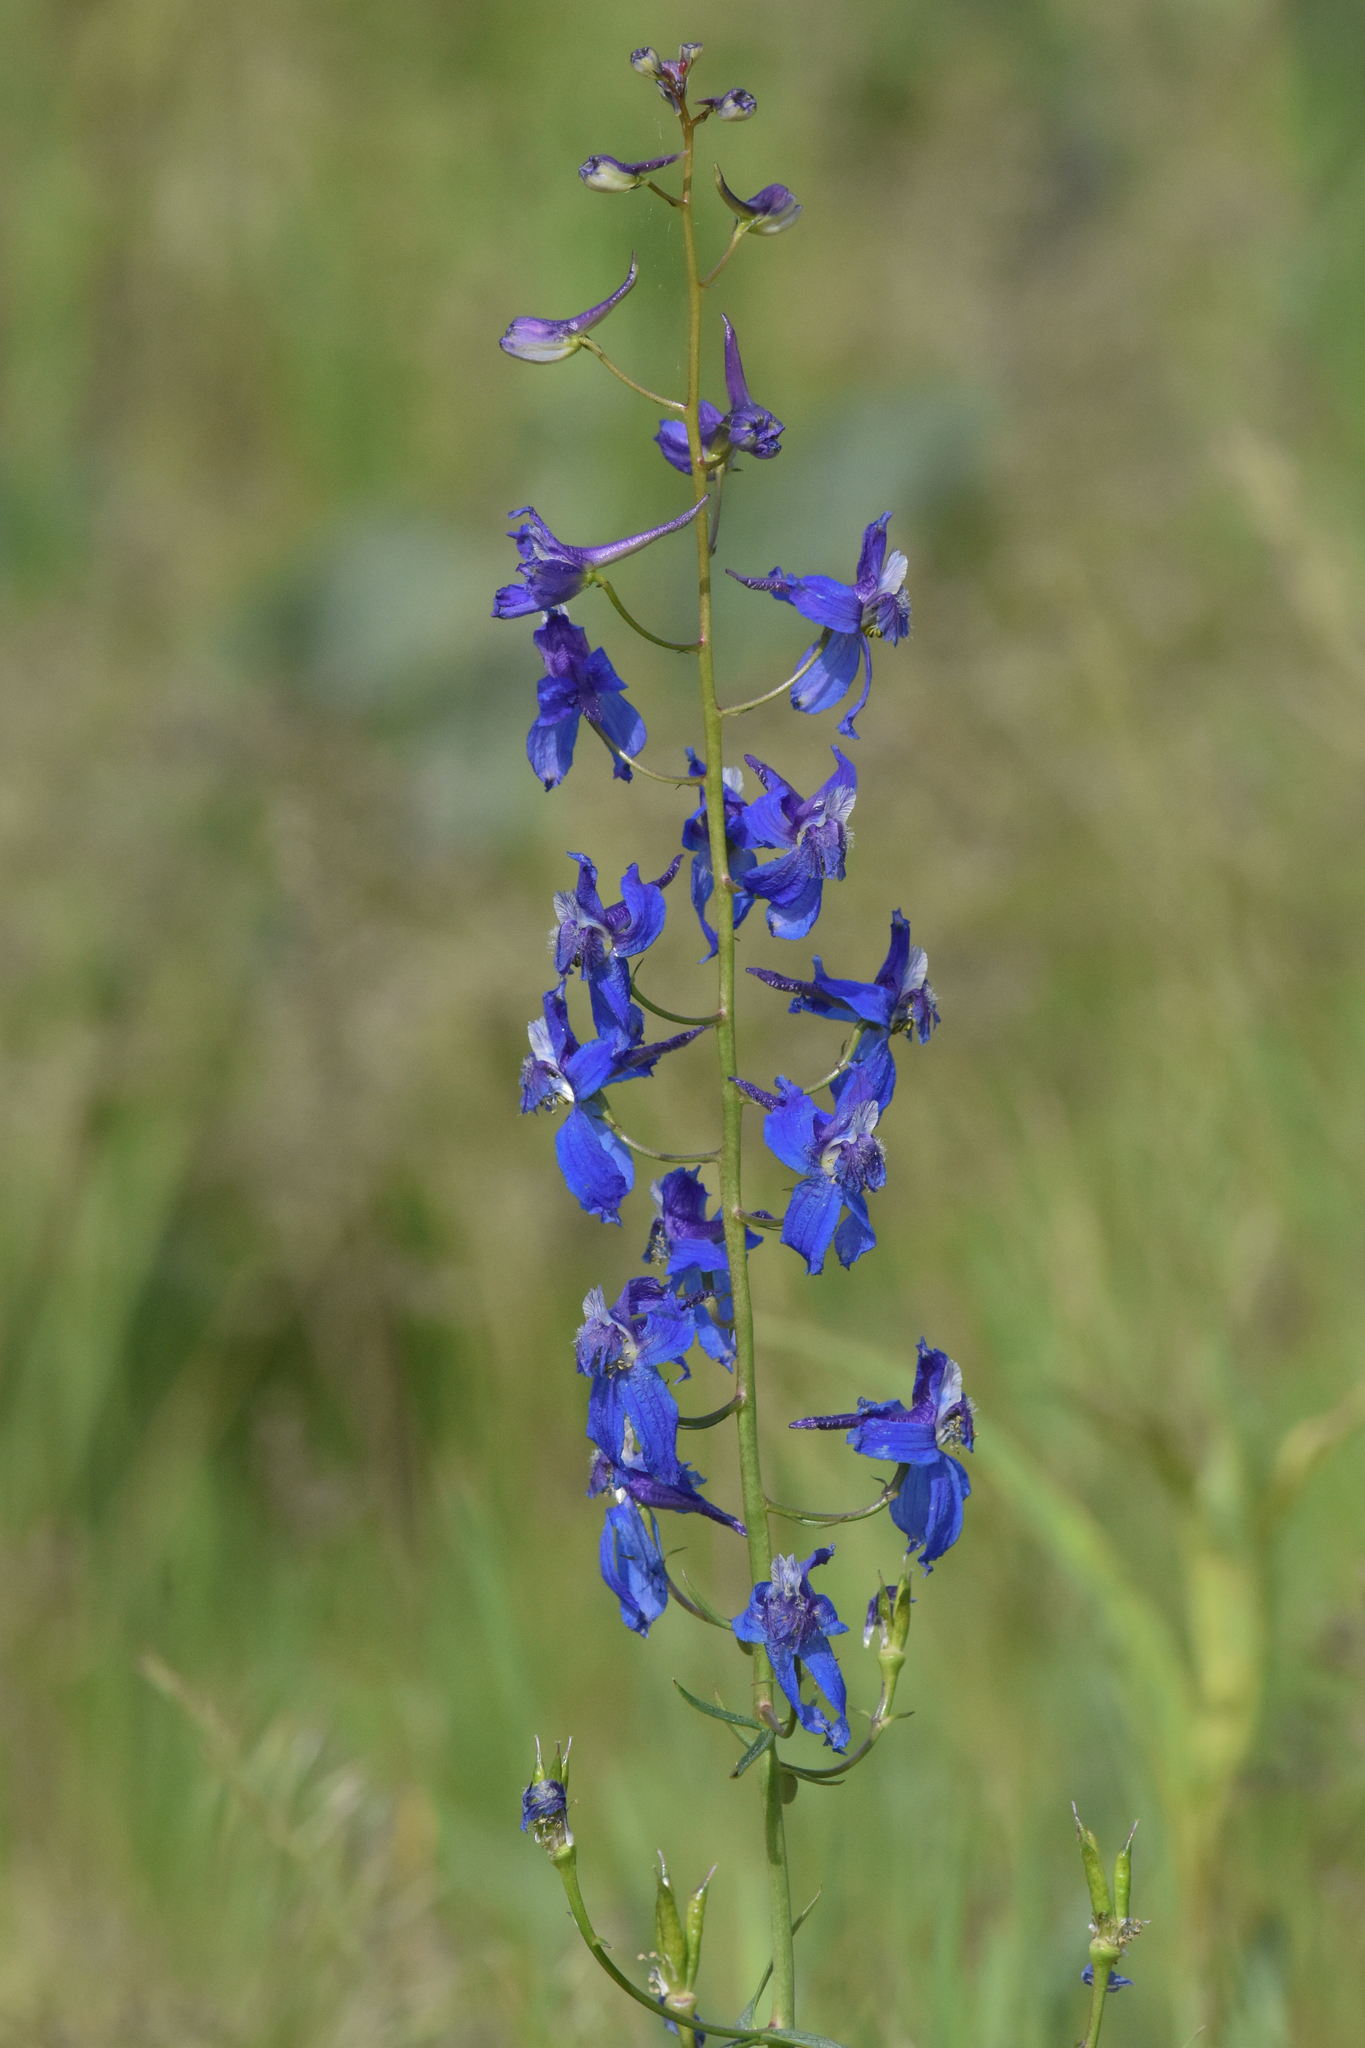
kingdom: Plantae
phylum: Tracheophyta
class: Magnoliopsida
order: Ranunculales
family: Ranunculaceae
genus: Delphinium
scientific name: Delphinium nuttallianum
